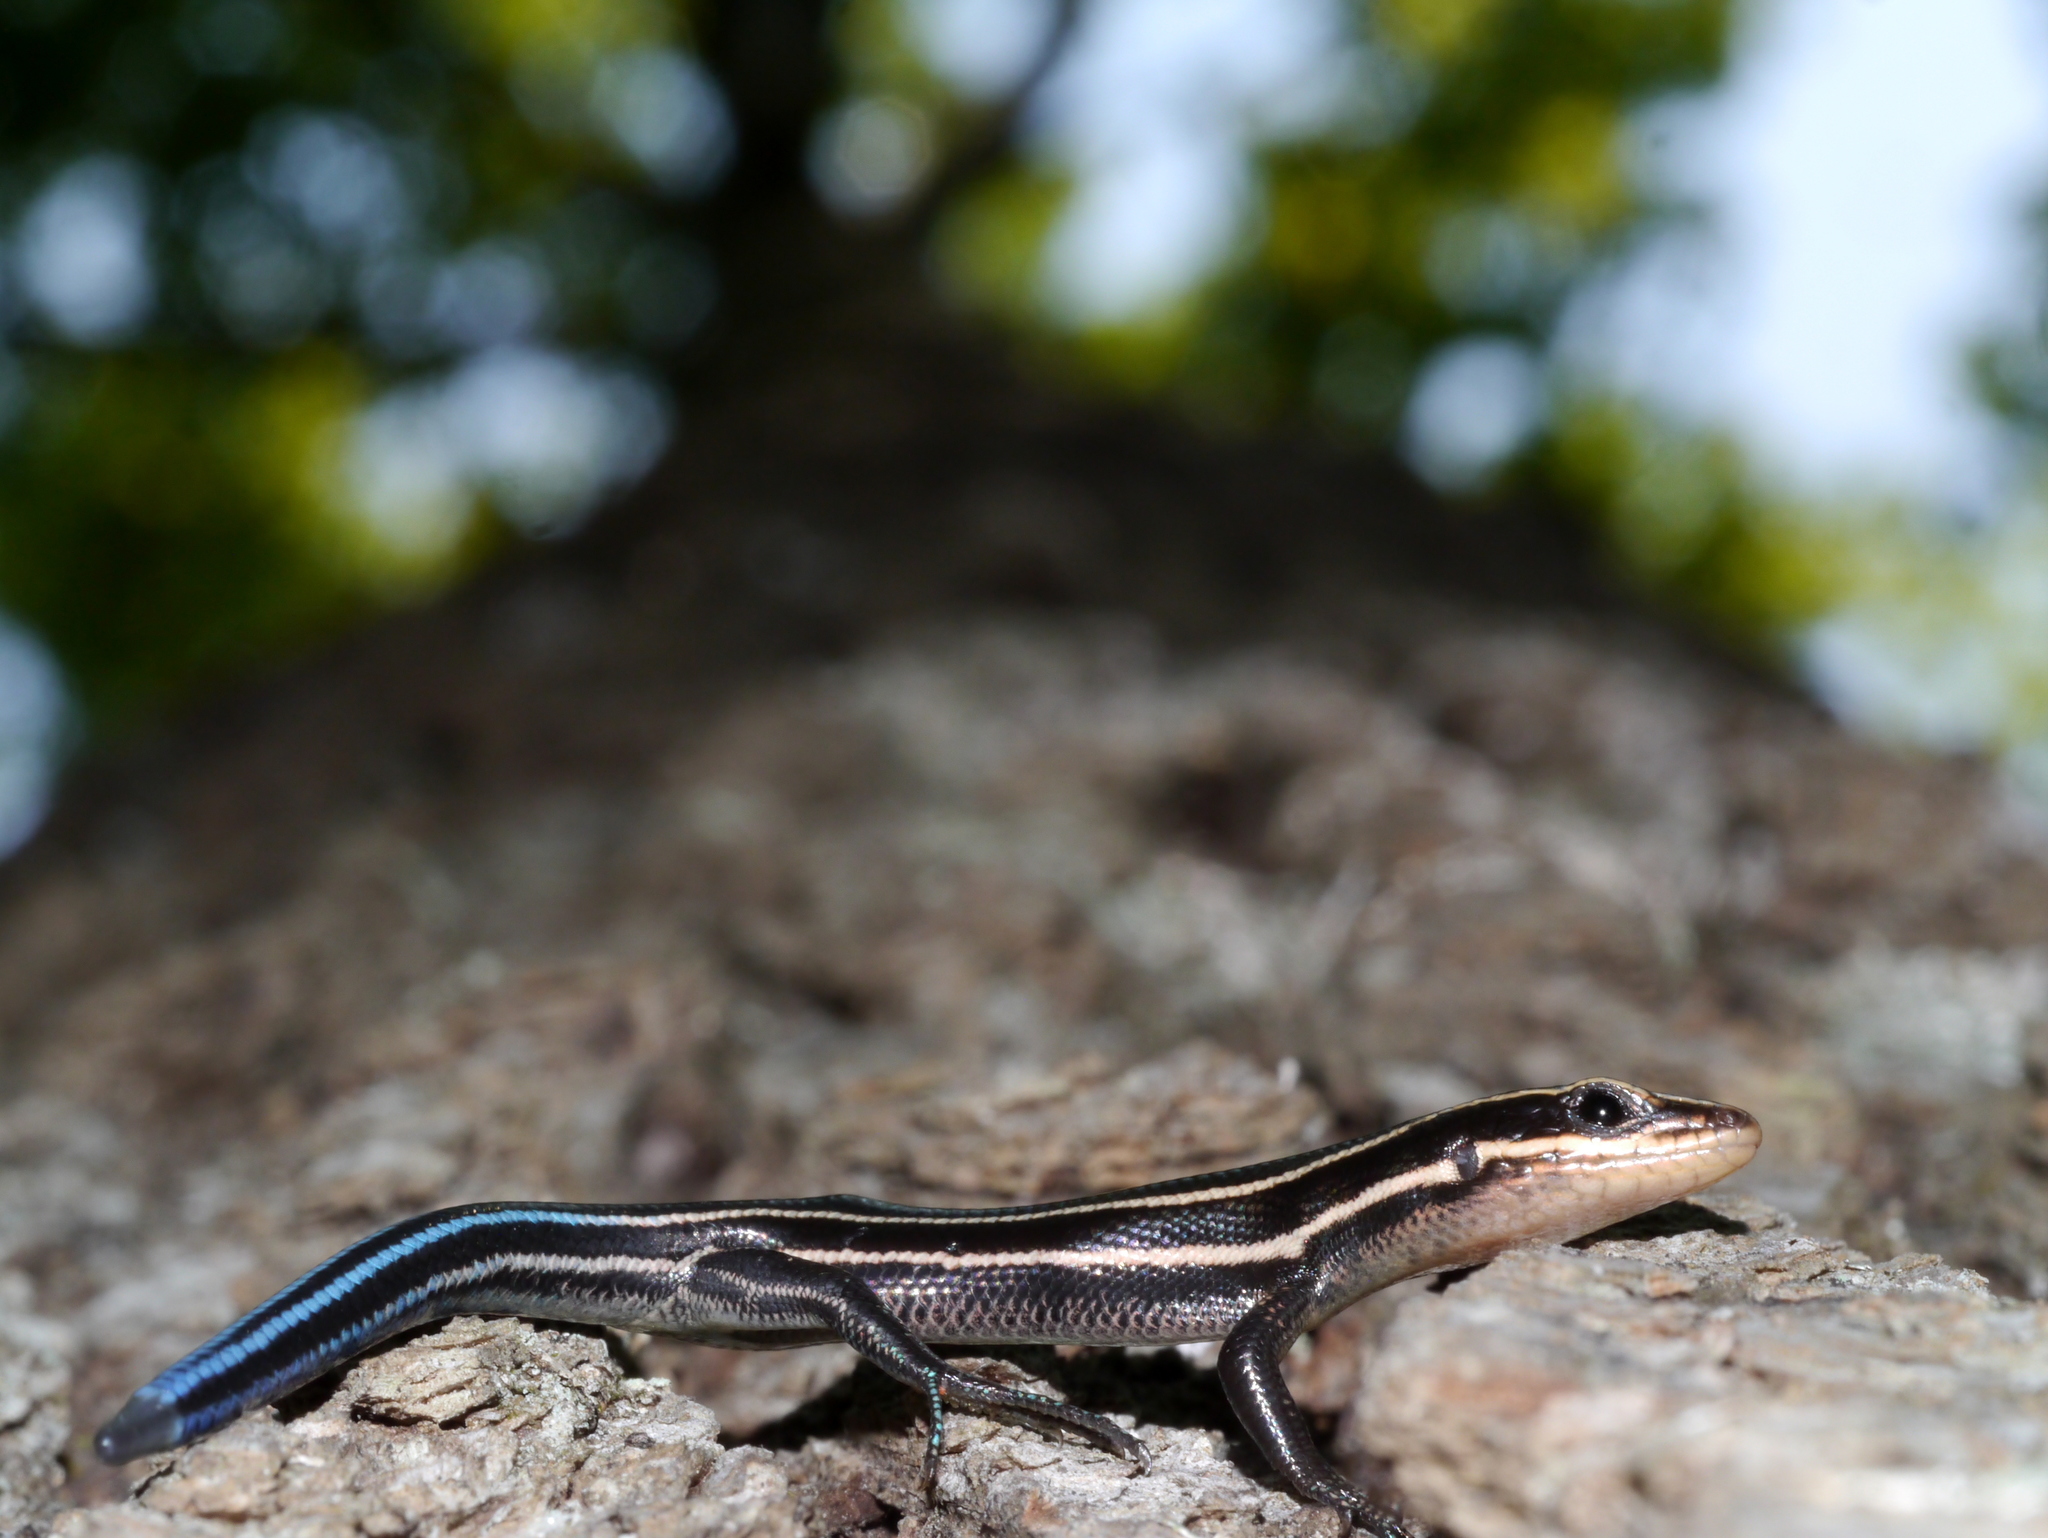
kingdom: Animalia
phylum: Chordata
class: Squamata
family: Scincidae
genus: Plestiodon
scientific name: Plestiodon fasciatus
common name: Five-lined skink
